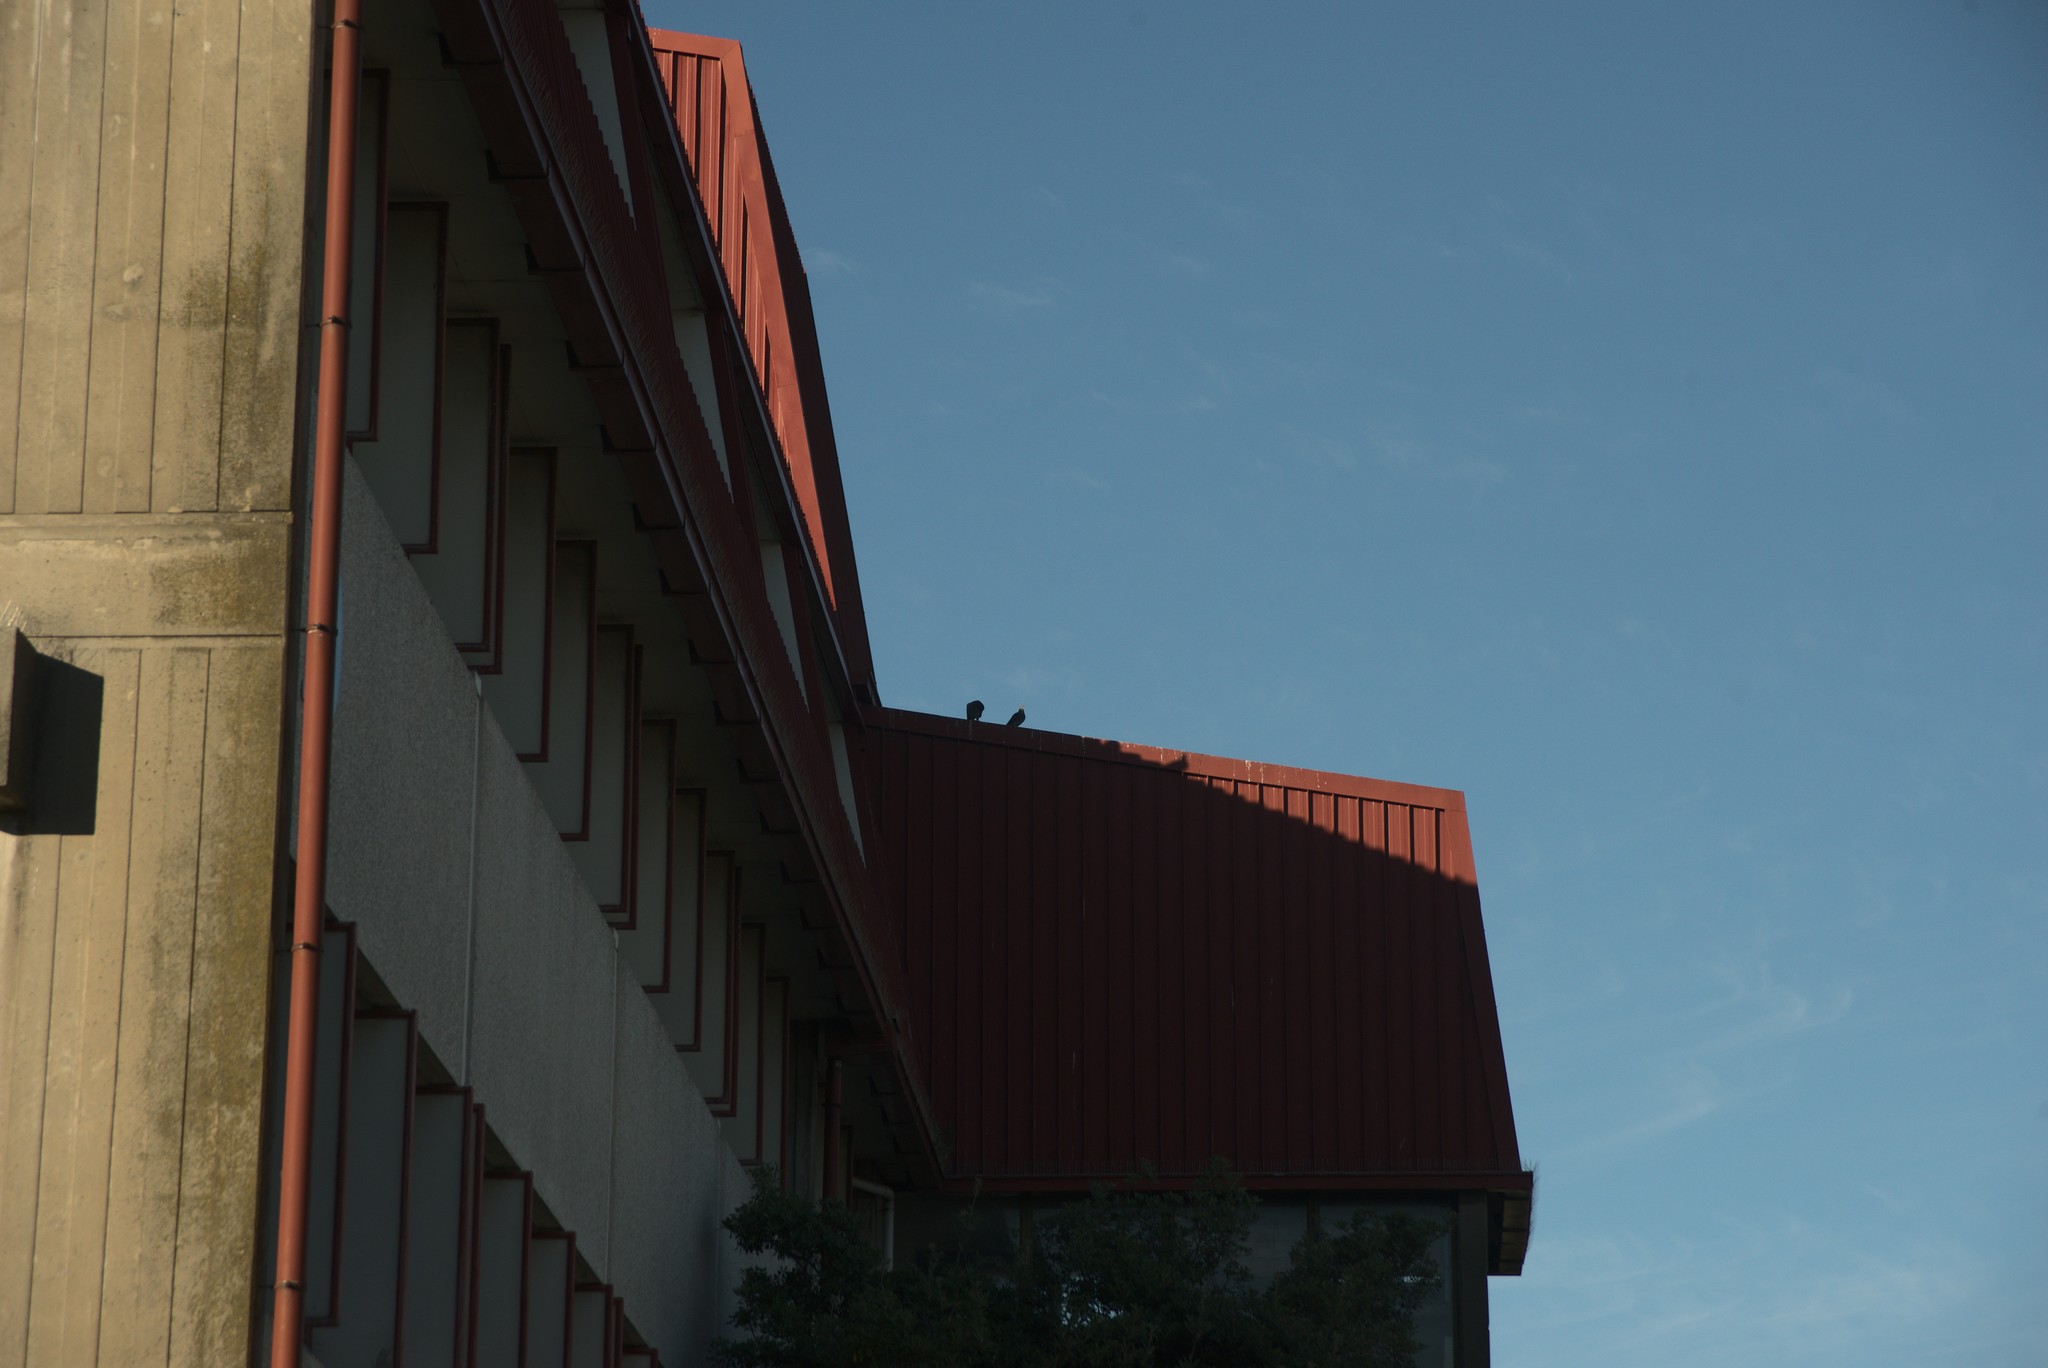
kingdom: Animalia
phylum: Chordata
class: Aves
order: Columbiformes
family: Columbidae
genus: Columba
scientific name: Columba livia
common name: Rock pigeon
